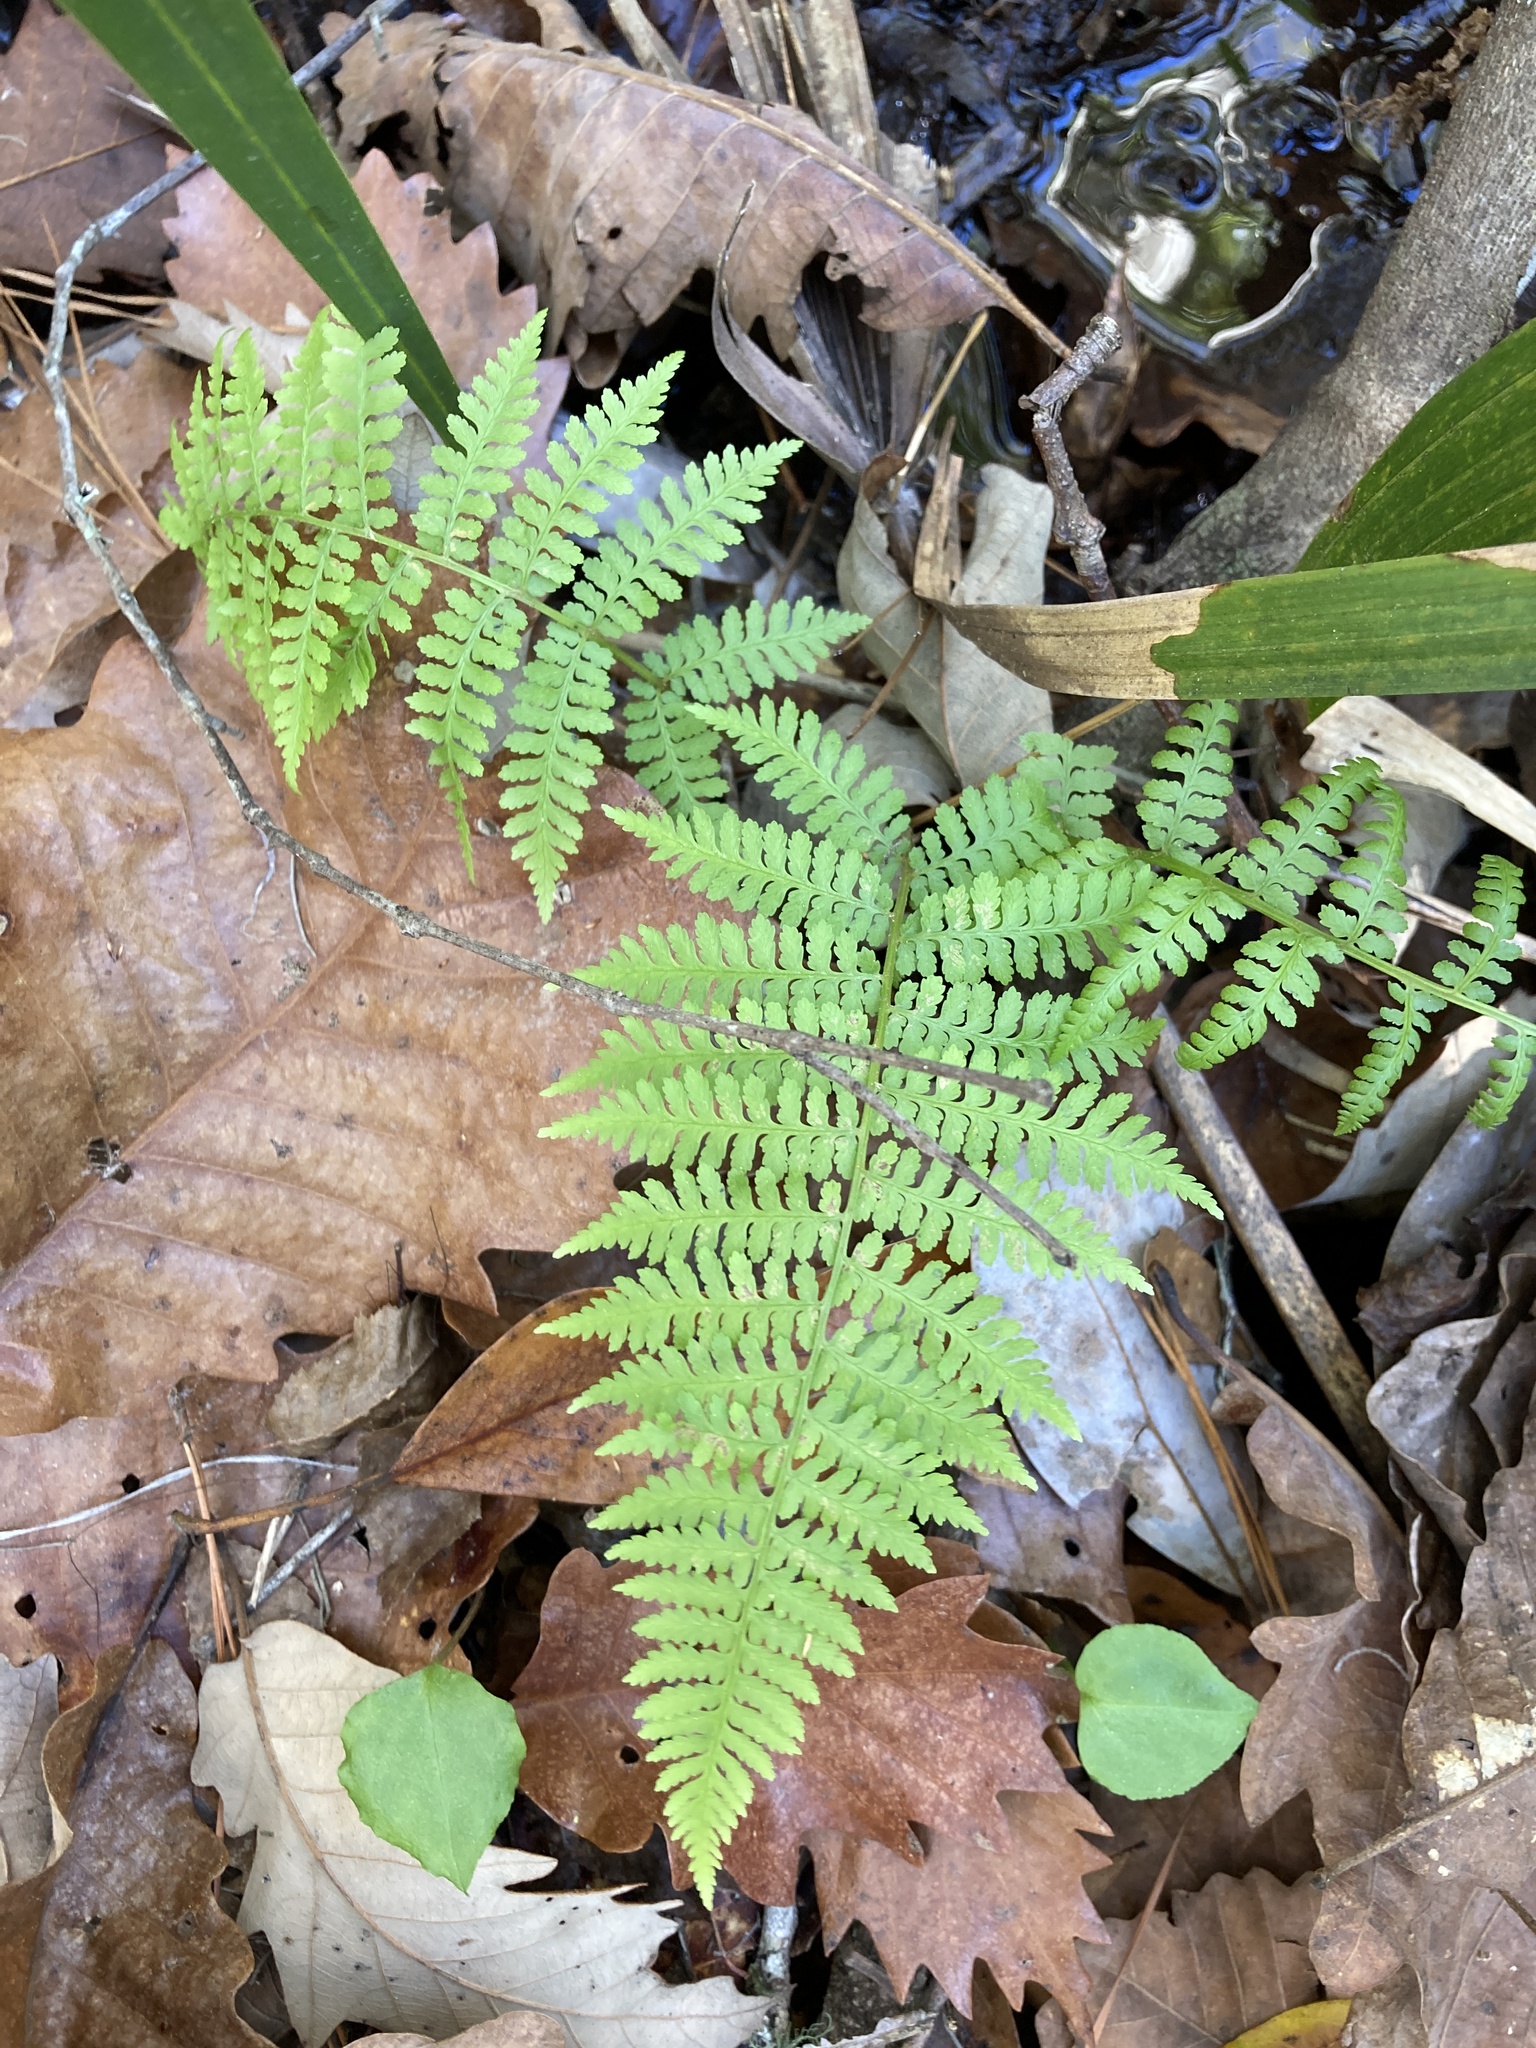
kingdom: Plantae
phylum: Tracheophyta
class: Polypodiopsida
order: Polypodiales
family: Athyriaceae
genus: Athyrium
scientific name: Athyrium asplenioides
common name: Southern lady fern
